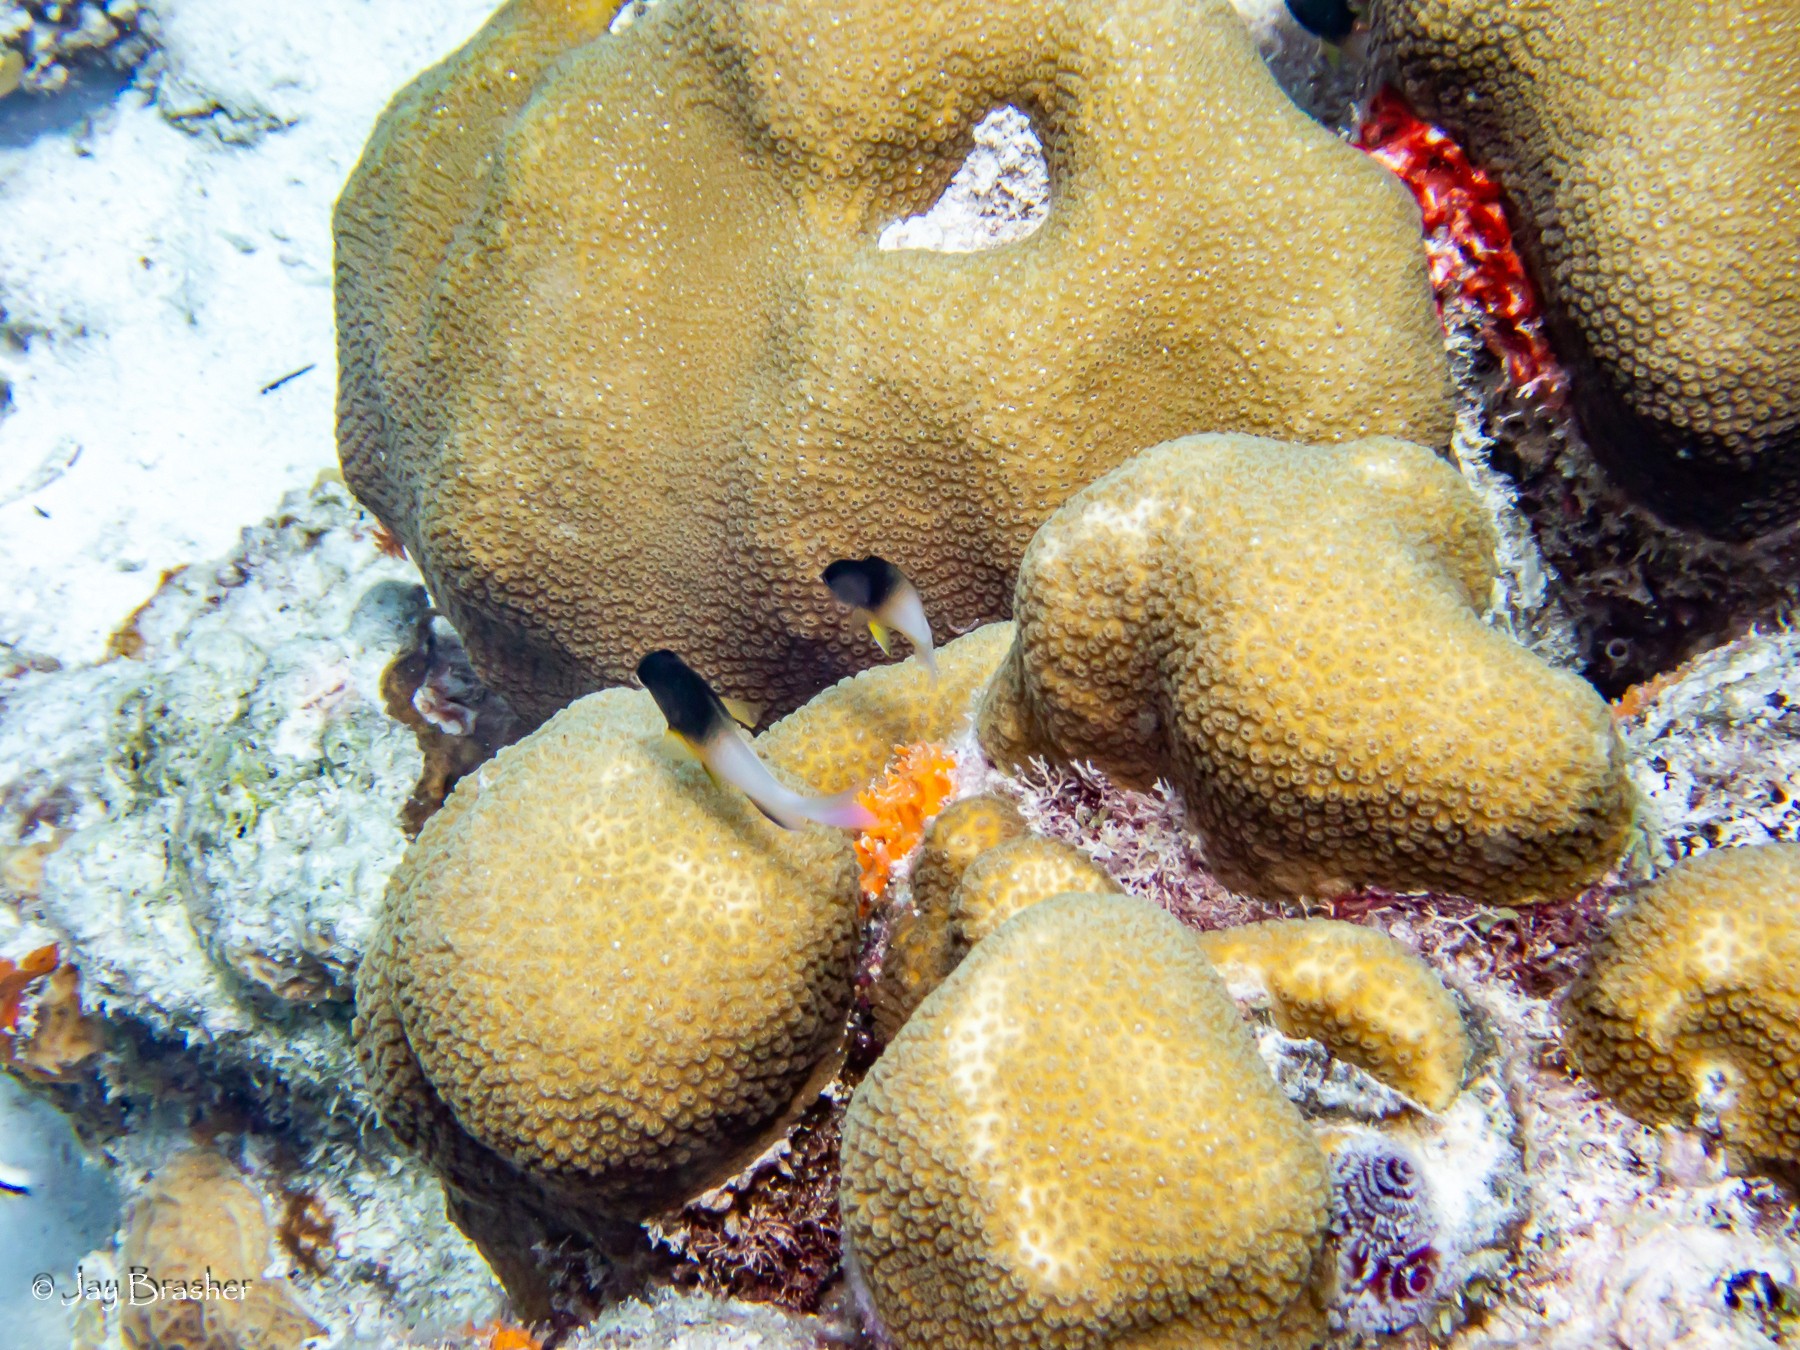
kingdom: Animalia
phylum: Chordata
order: Perciformes
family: Pomacentridae
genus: Stegastes
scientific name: Stegastes partitus
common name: Bicolor damselfish
